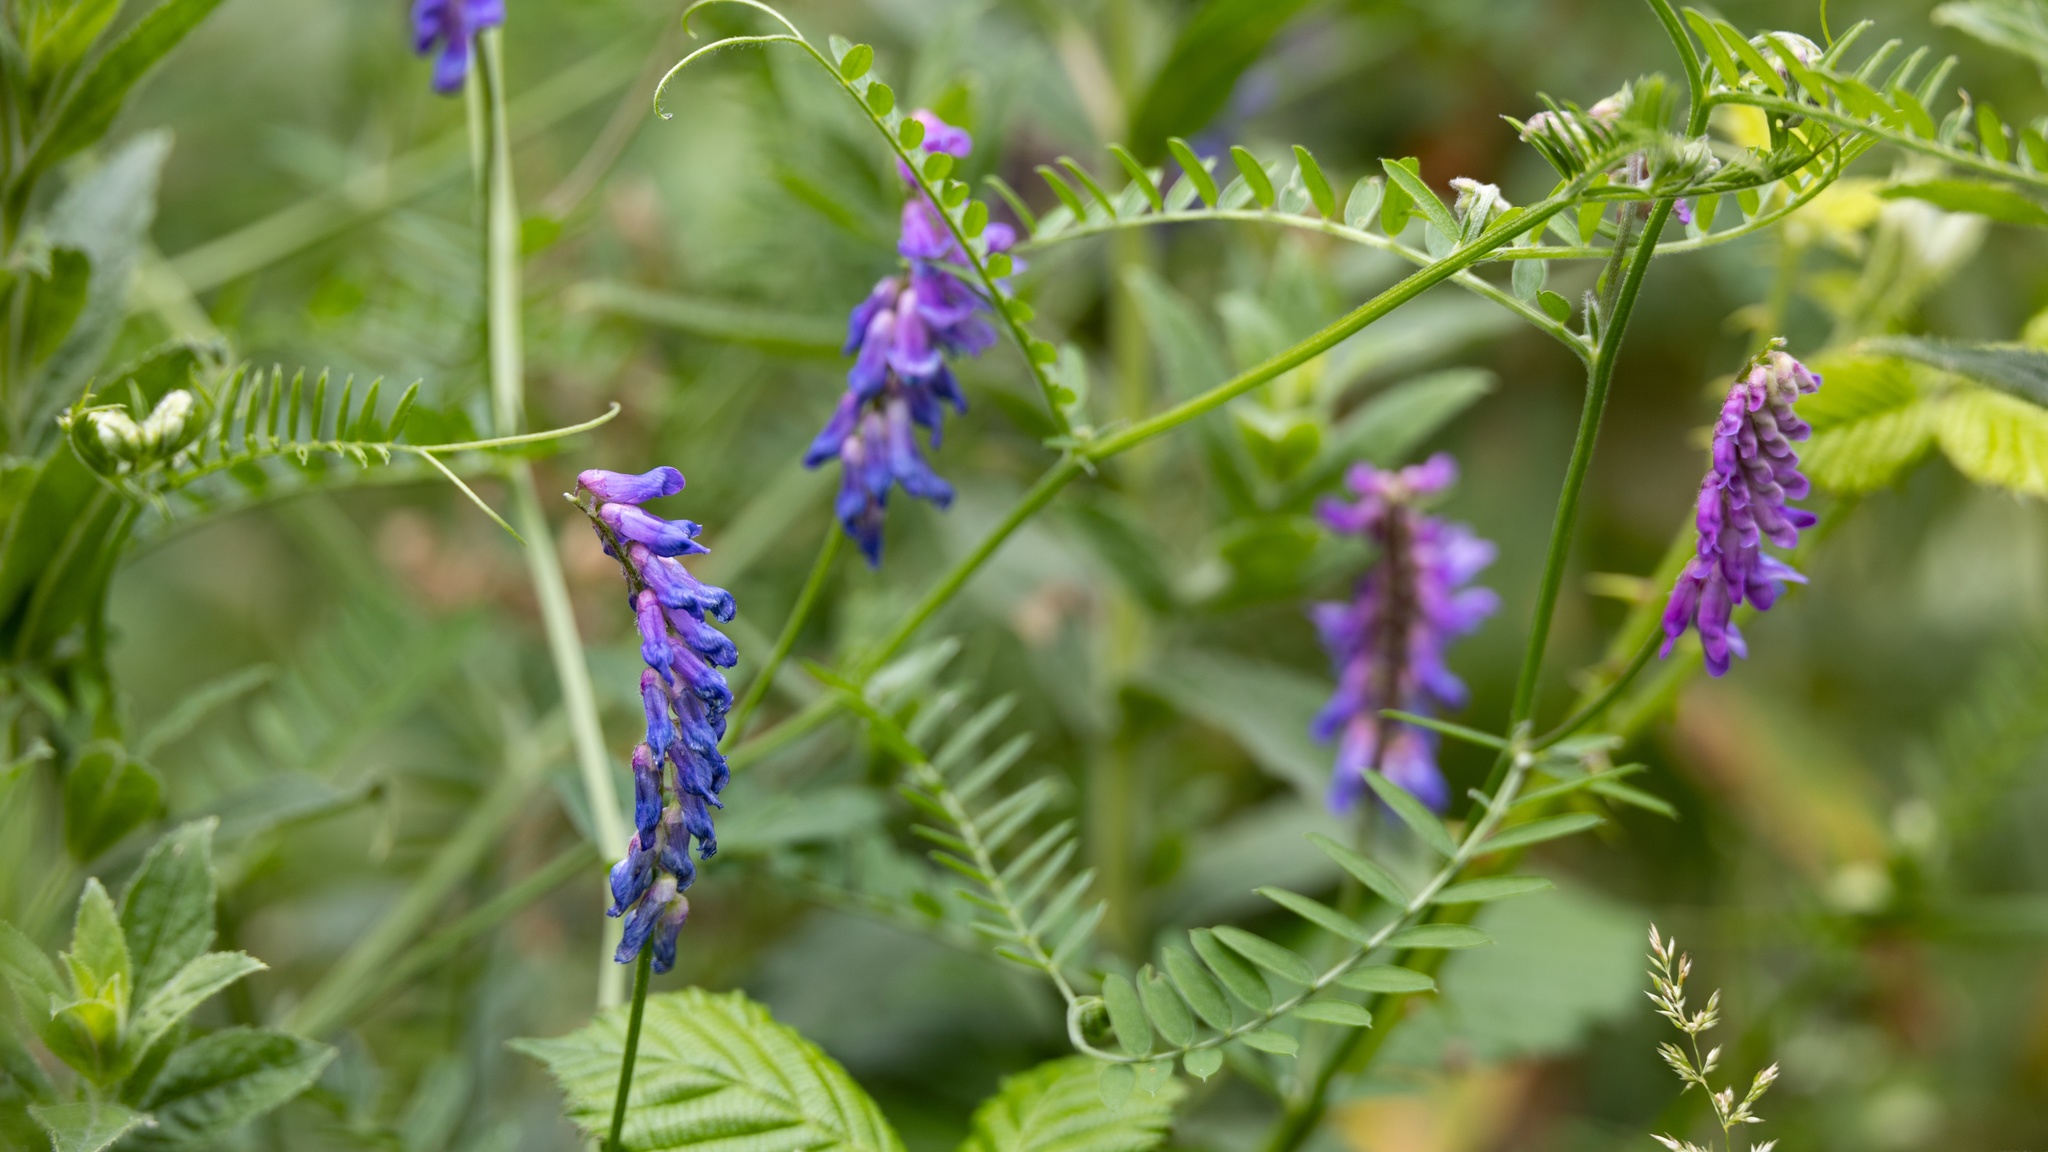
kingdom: Plantae
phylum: Tracheophyta
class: Magnoliopsida
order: Fabales
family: Fabaceae
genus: Vicia
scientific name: Vicia cracca
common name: Bird vetch
